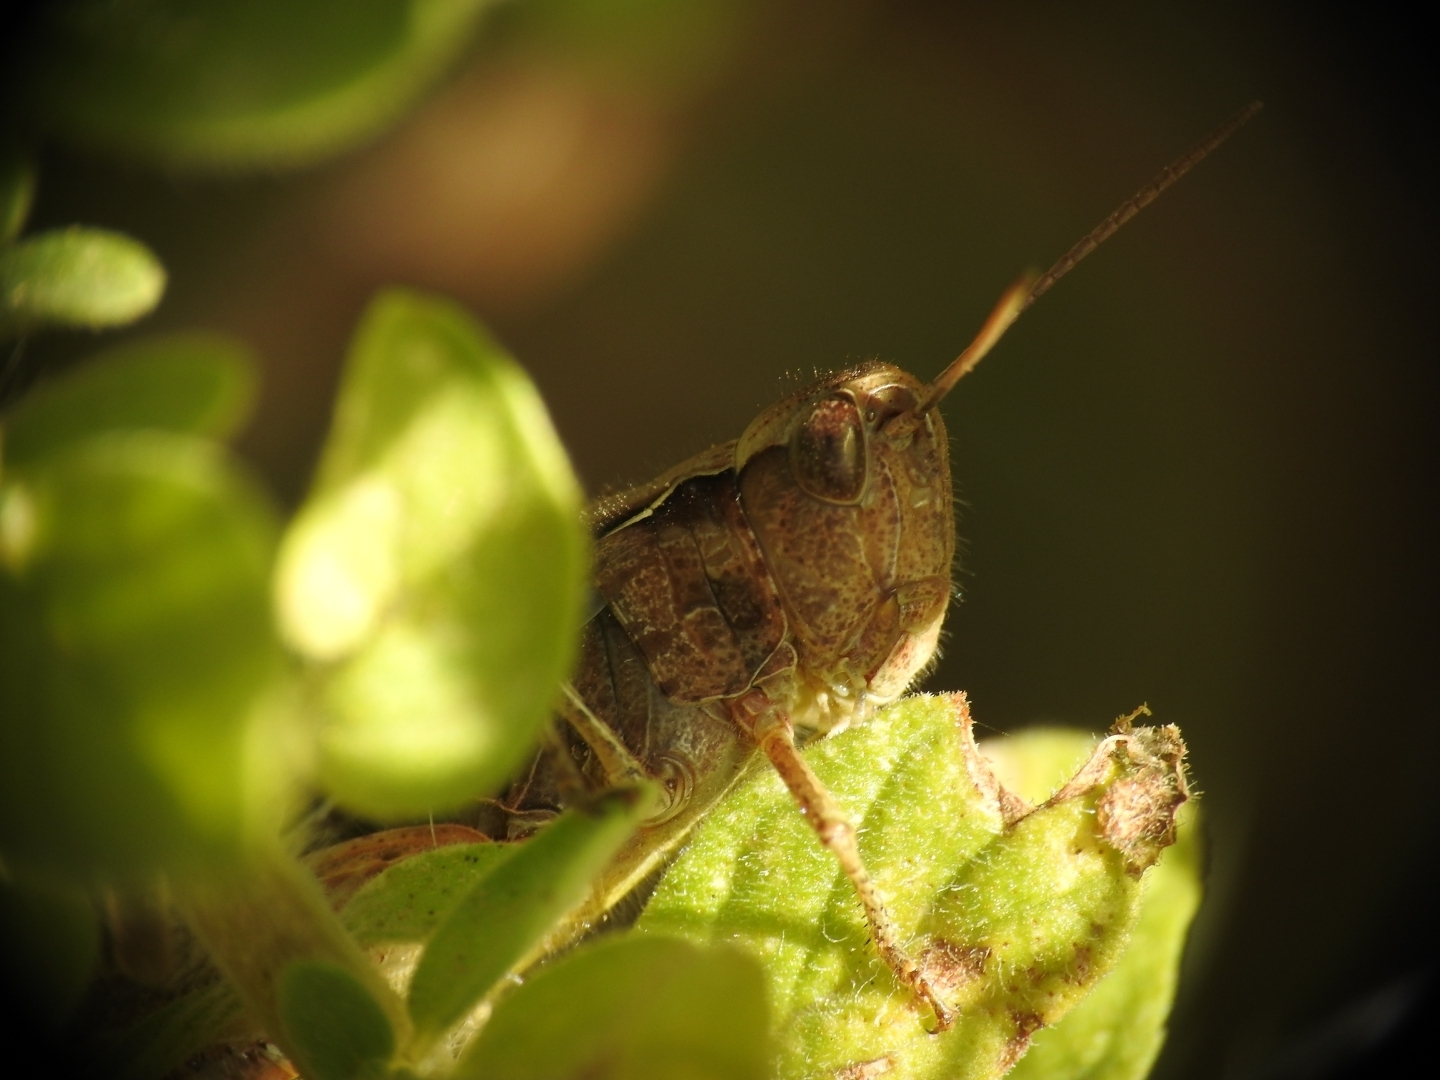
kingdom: Animalia
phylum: Arthropoda
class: Insecta
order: Orthoptera
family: Acrididae
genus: Chorthippus
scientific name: Chorthippus maritimus
